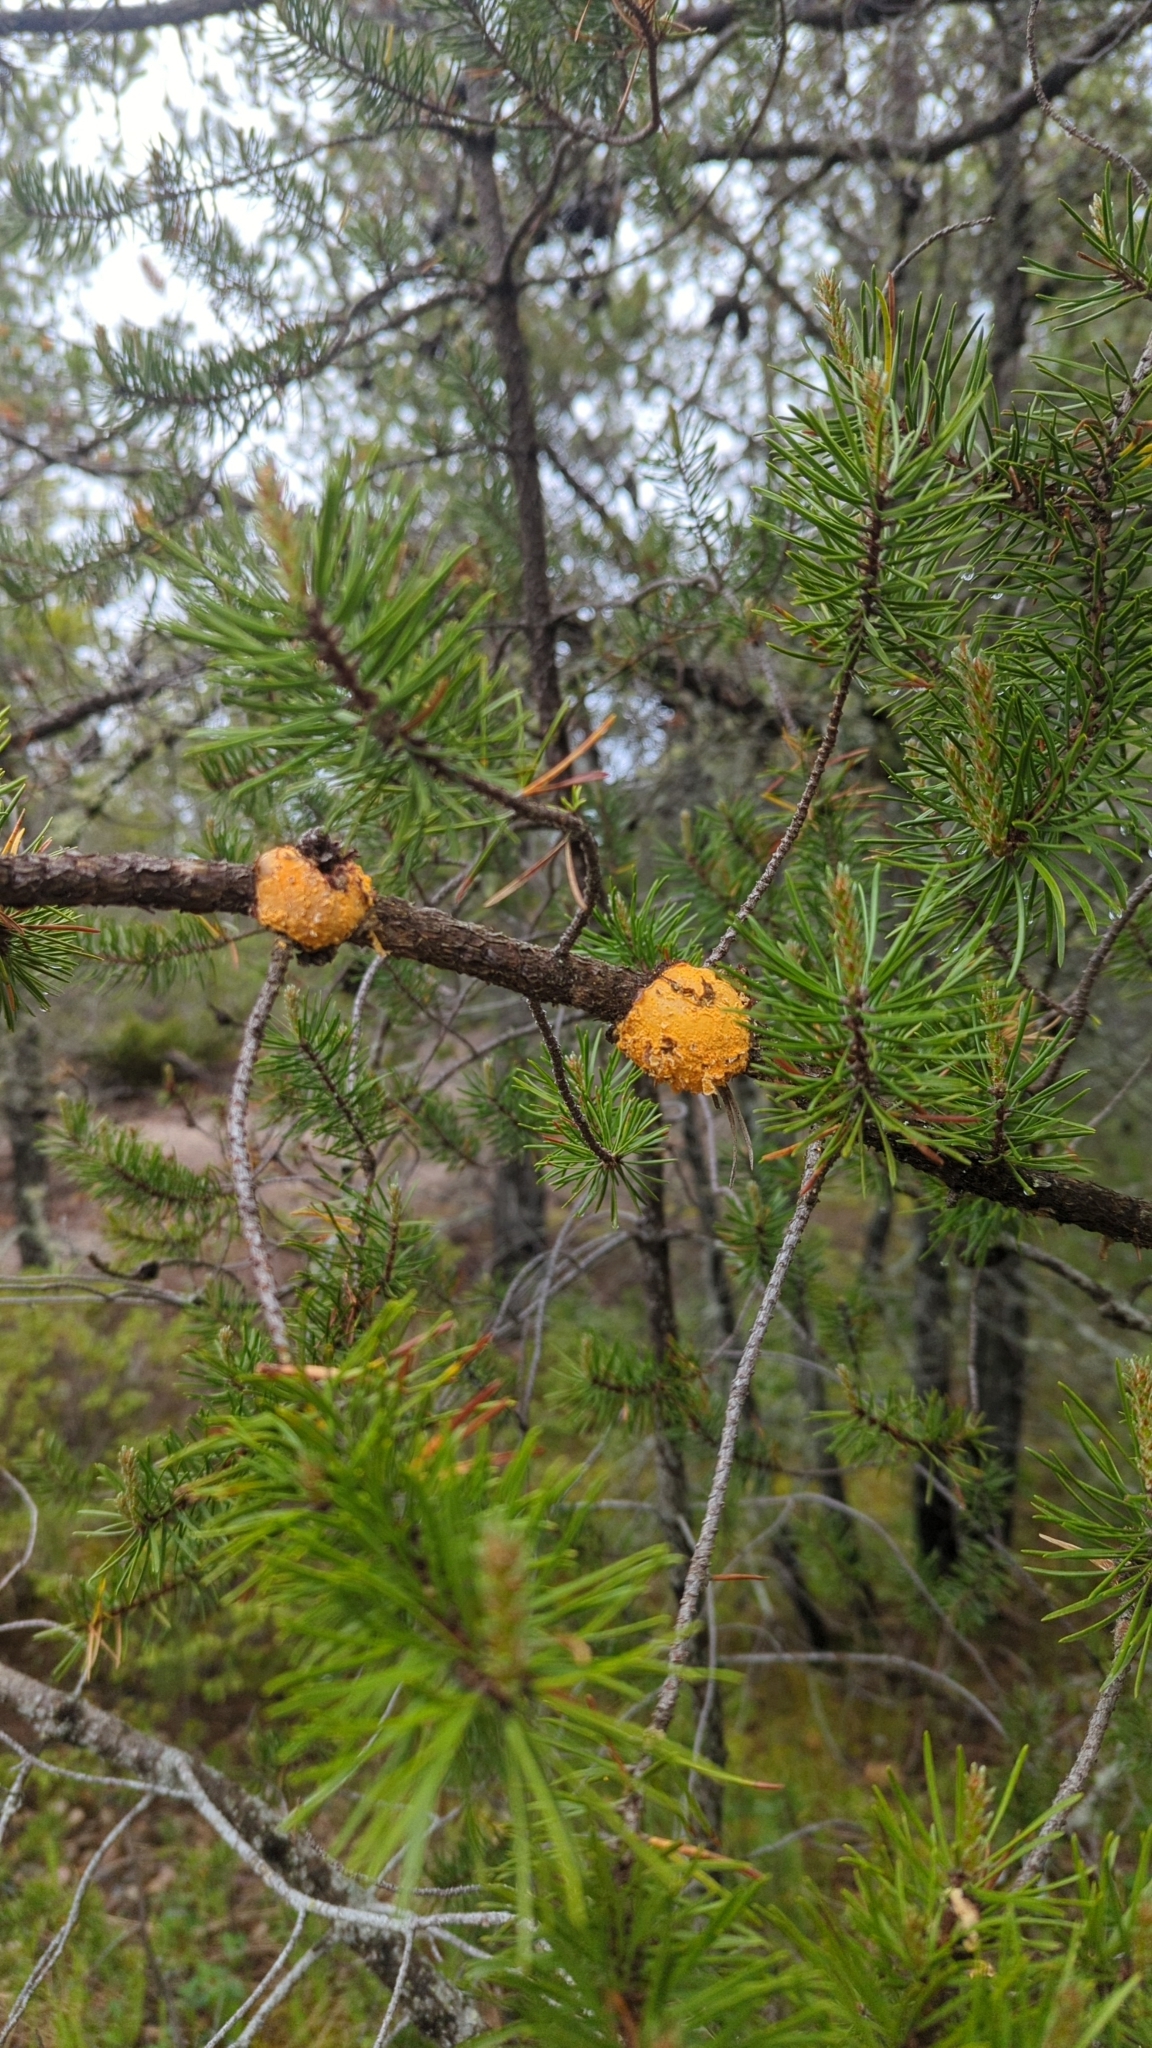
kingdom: Fungi
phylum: Basidiomycota
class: Pucciniomycetes
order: Pucciniales
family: Cronartiaceae
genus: Cronartium
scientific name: Cronartium quercuum
